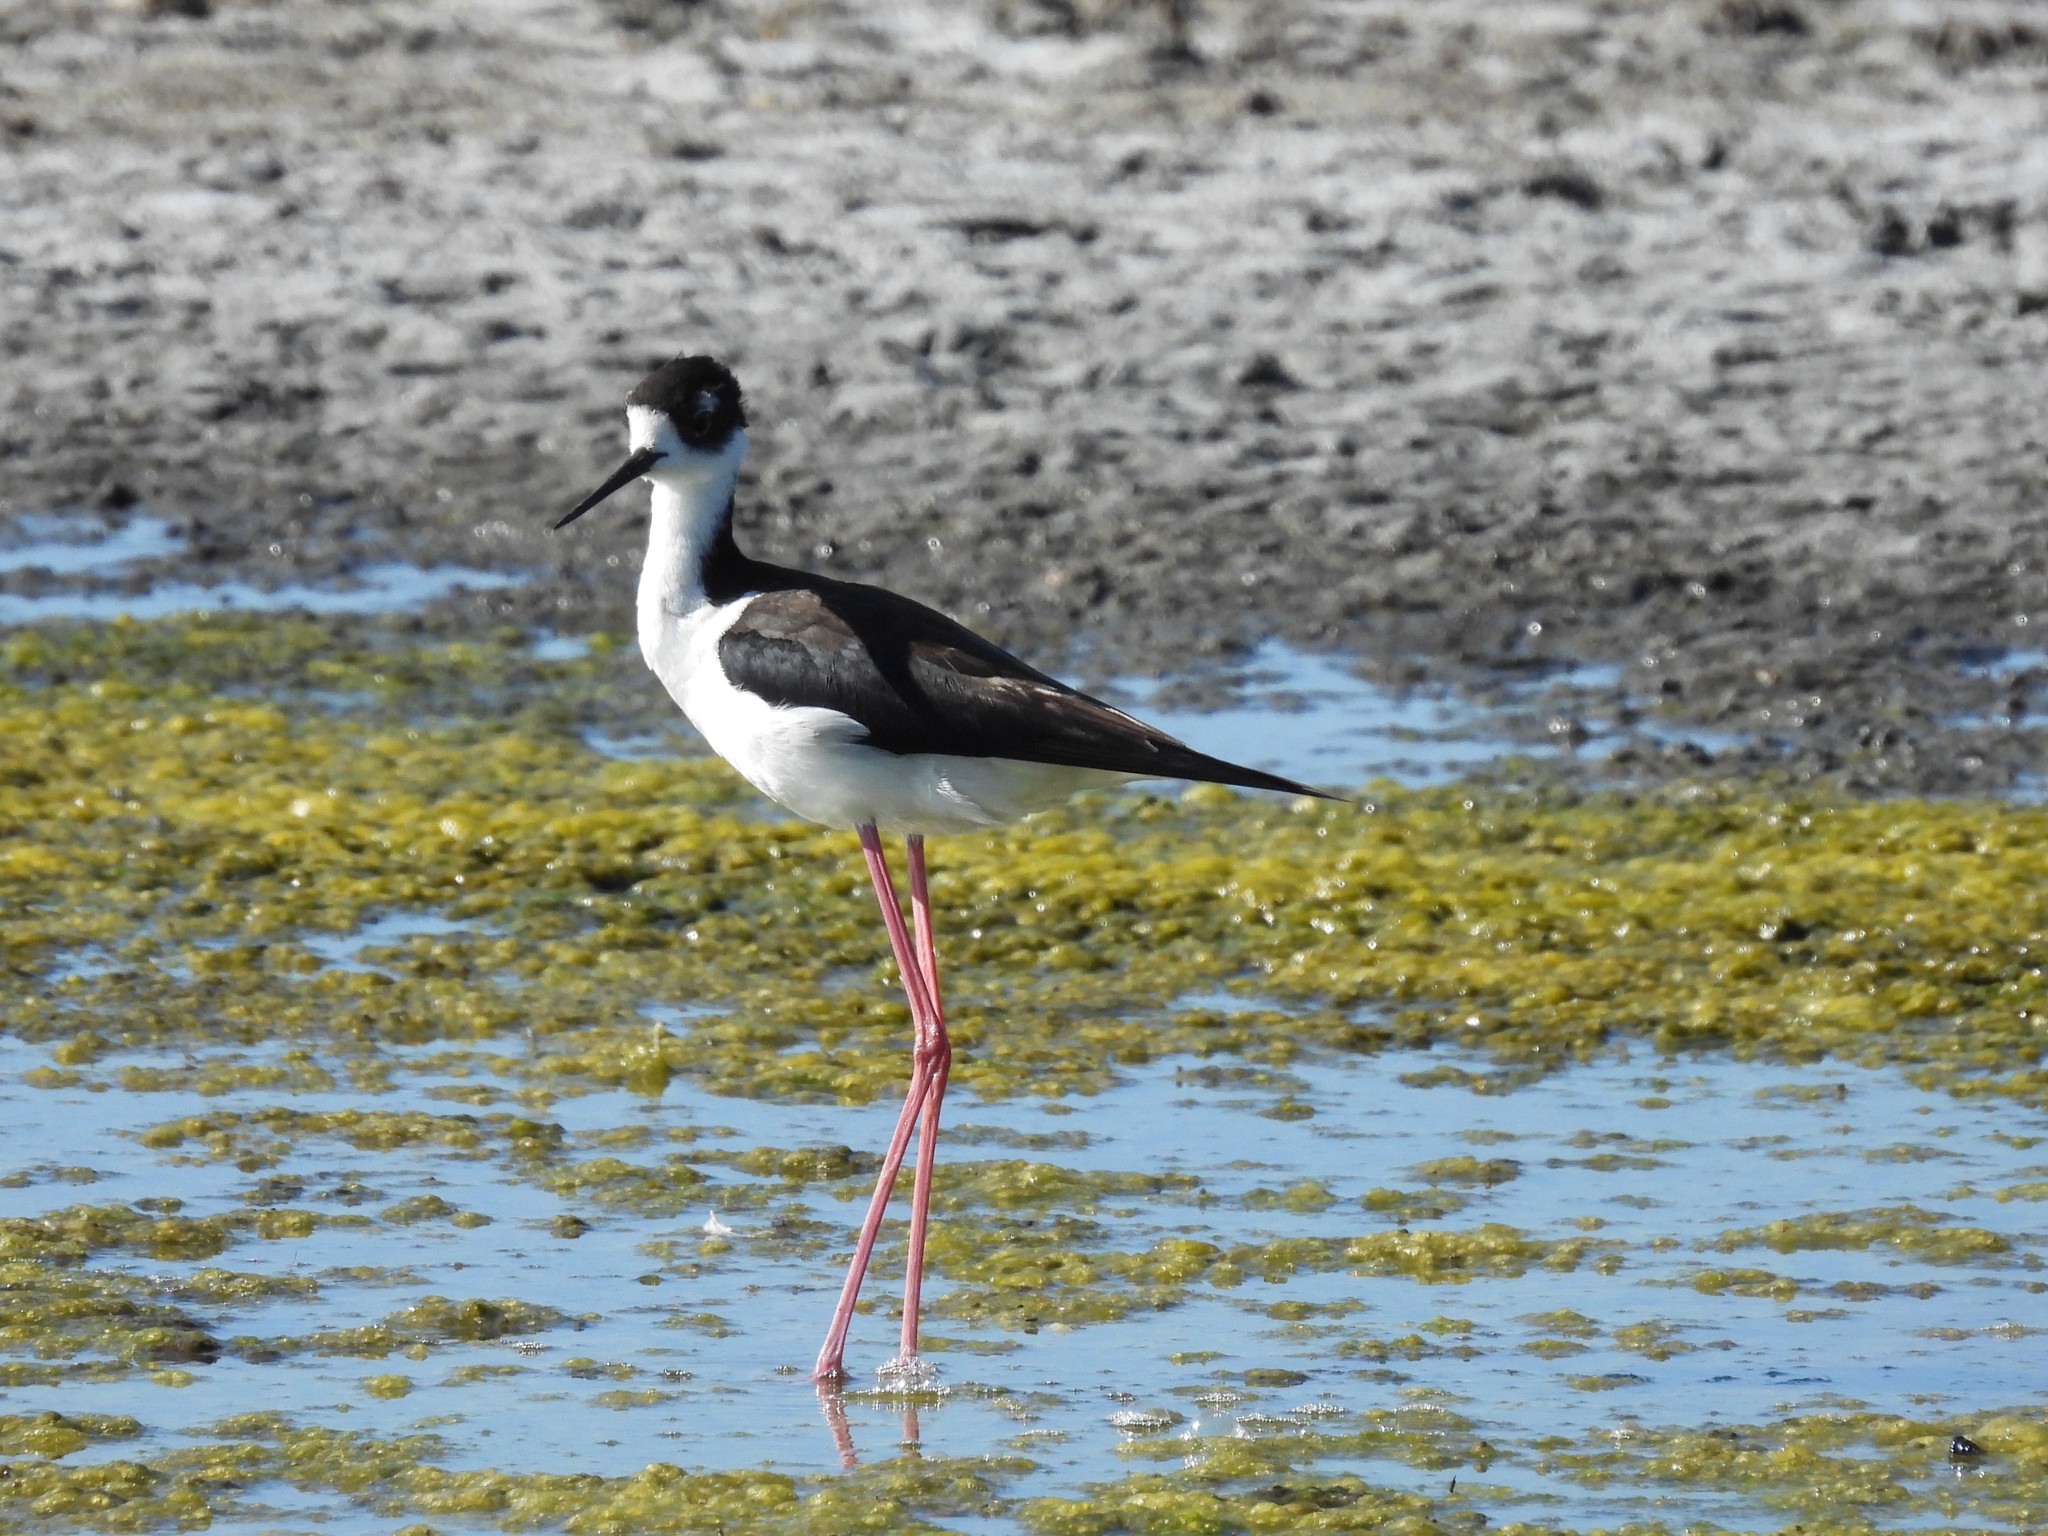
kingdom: Animalia
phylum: Chordata
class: Aves
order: Charadriiformes
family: Recurvirostridae
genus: Himantopus
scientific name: Himantopus mexicanus
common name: Black-necked stilt
